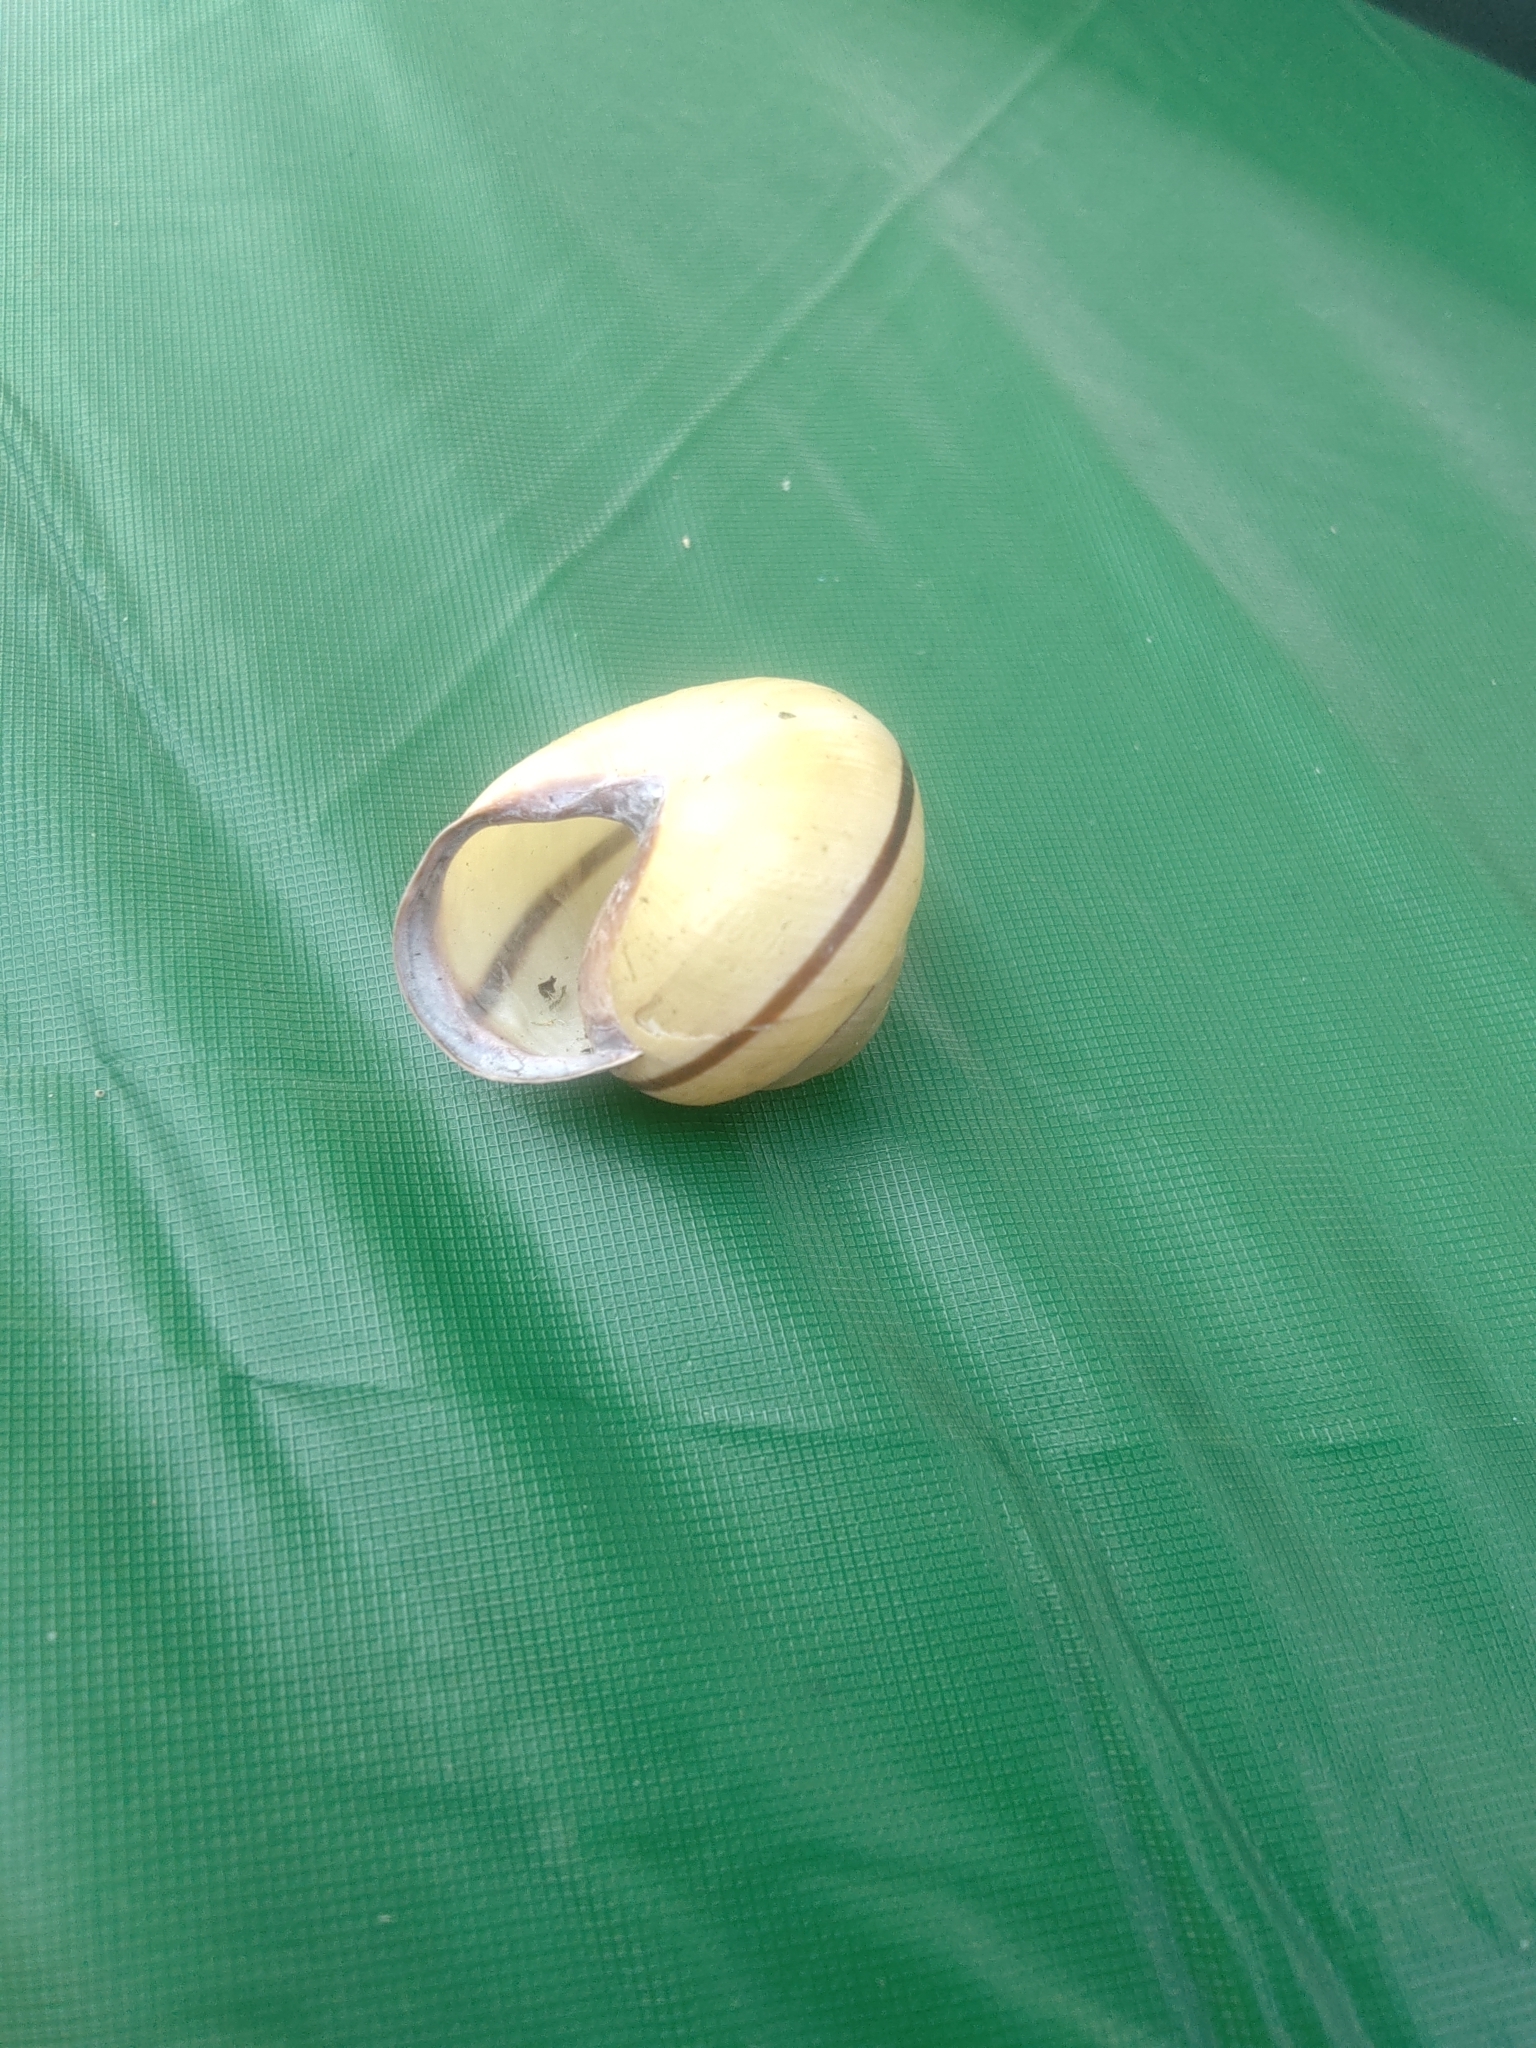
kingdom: Animalia
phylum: Mollusca
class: Gastropoda
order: Stylommatophora
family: Helicidae
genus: Cepaea
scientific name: Cepaea nemoralis
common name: Grovesnail
